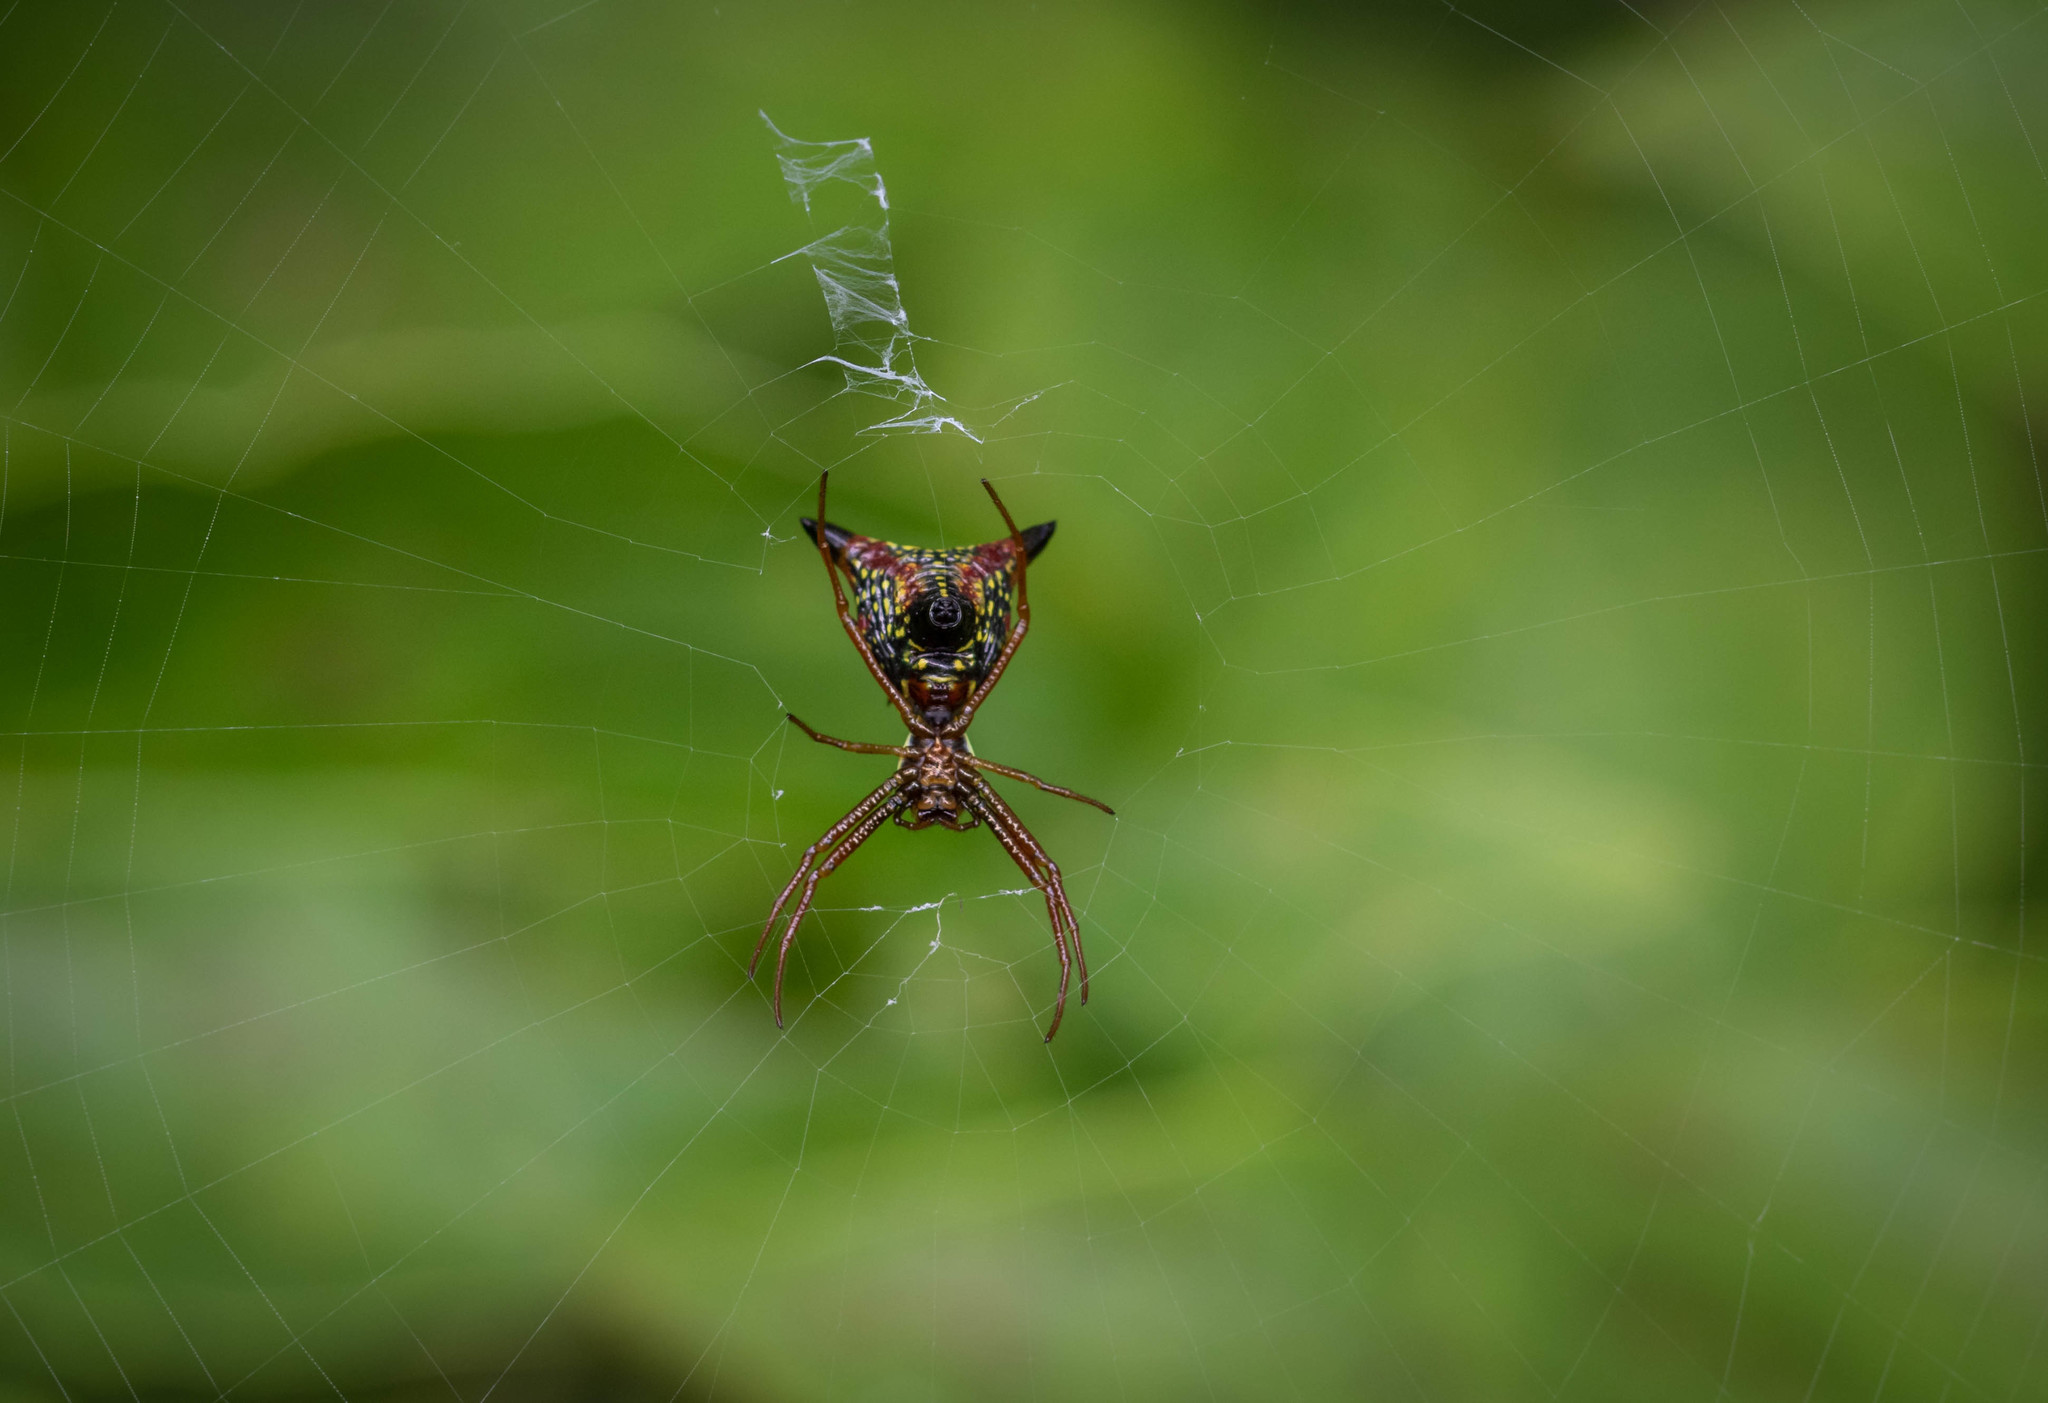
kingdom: Animalia
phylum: Arthropoda
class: Arachnida
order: Araneae
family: Araneidae
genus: Micrathena
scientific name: Micrathena sagittata
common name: Orb weavers
